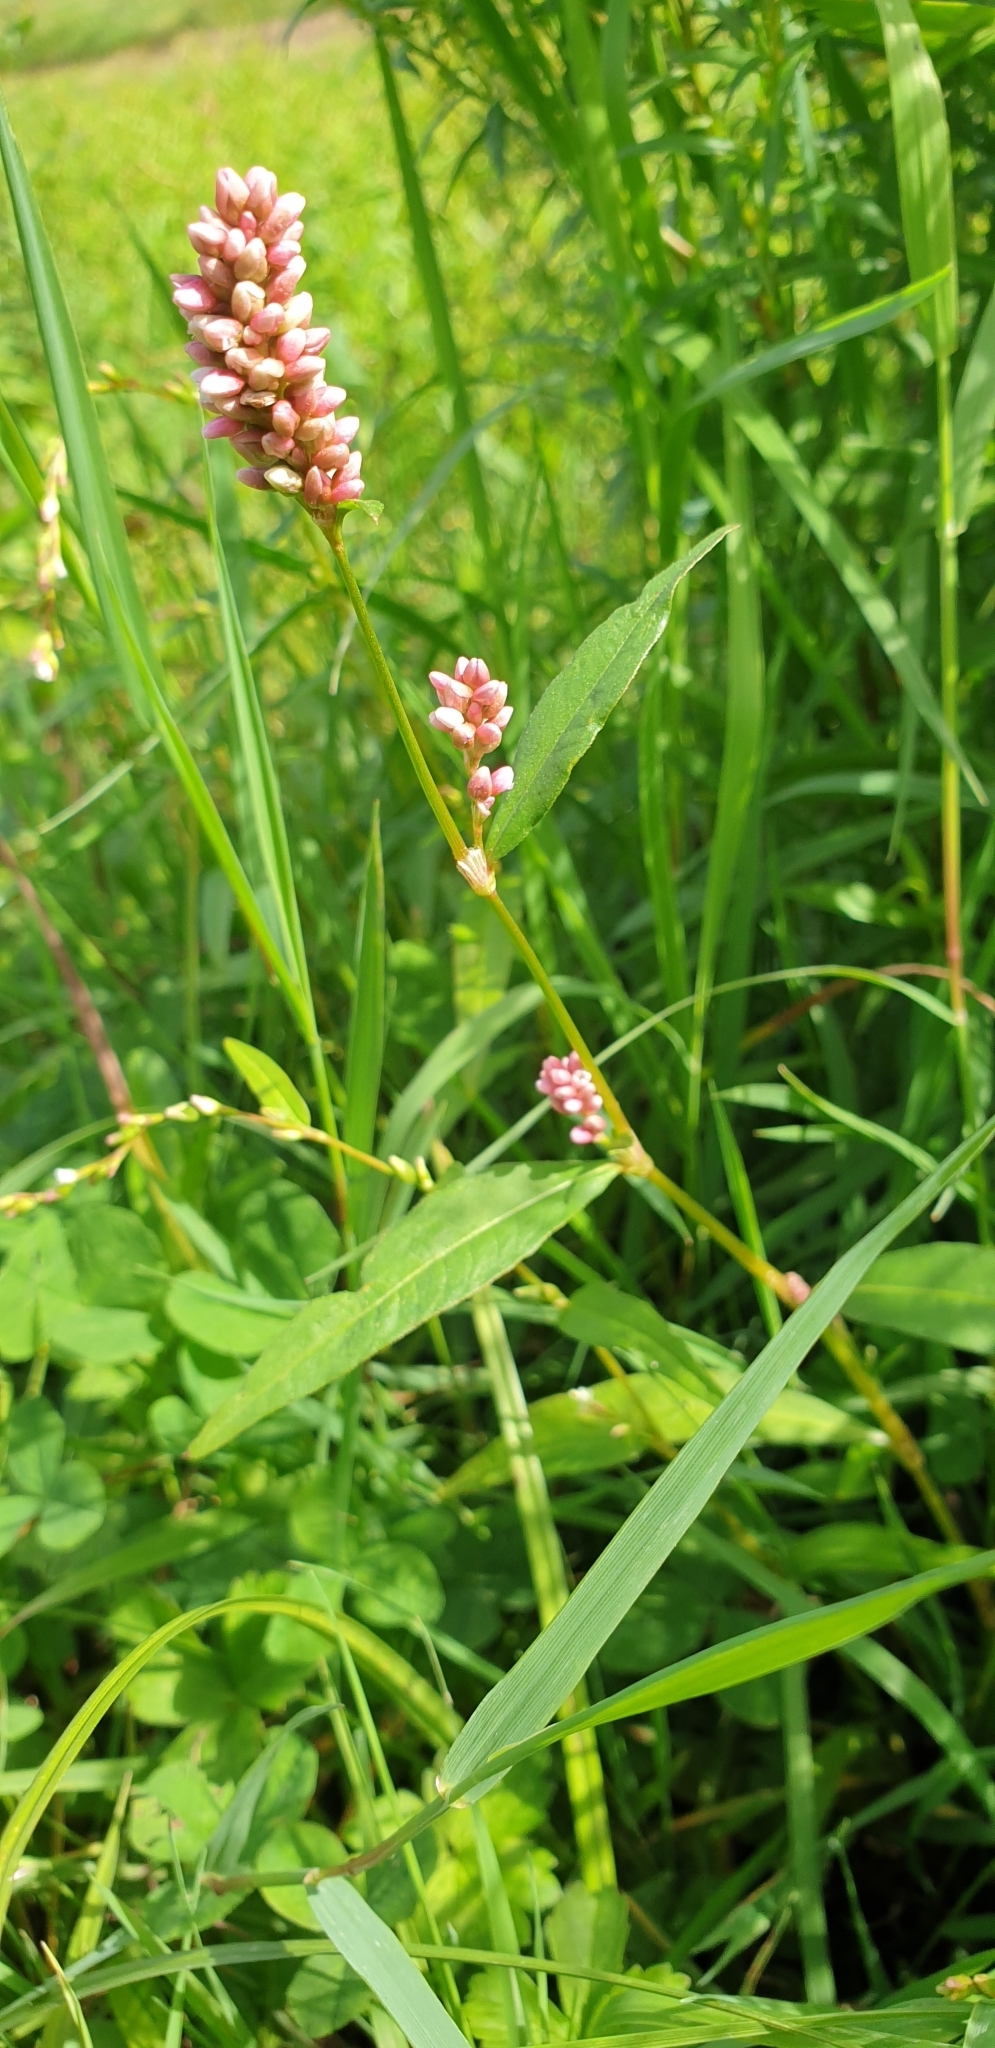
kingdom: Plantae
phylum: Tracheophyta
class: Magnoliopsida
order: Caryophyllales
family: Polygonaceae
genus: Persicaria
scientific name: Persicaria maculosa
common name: Redshank
